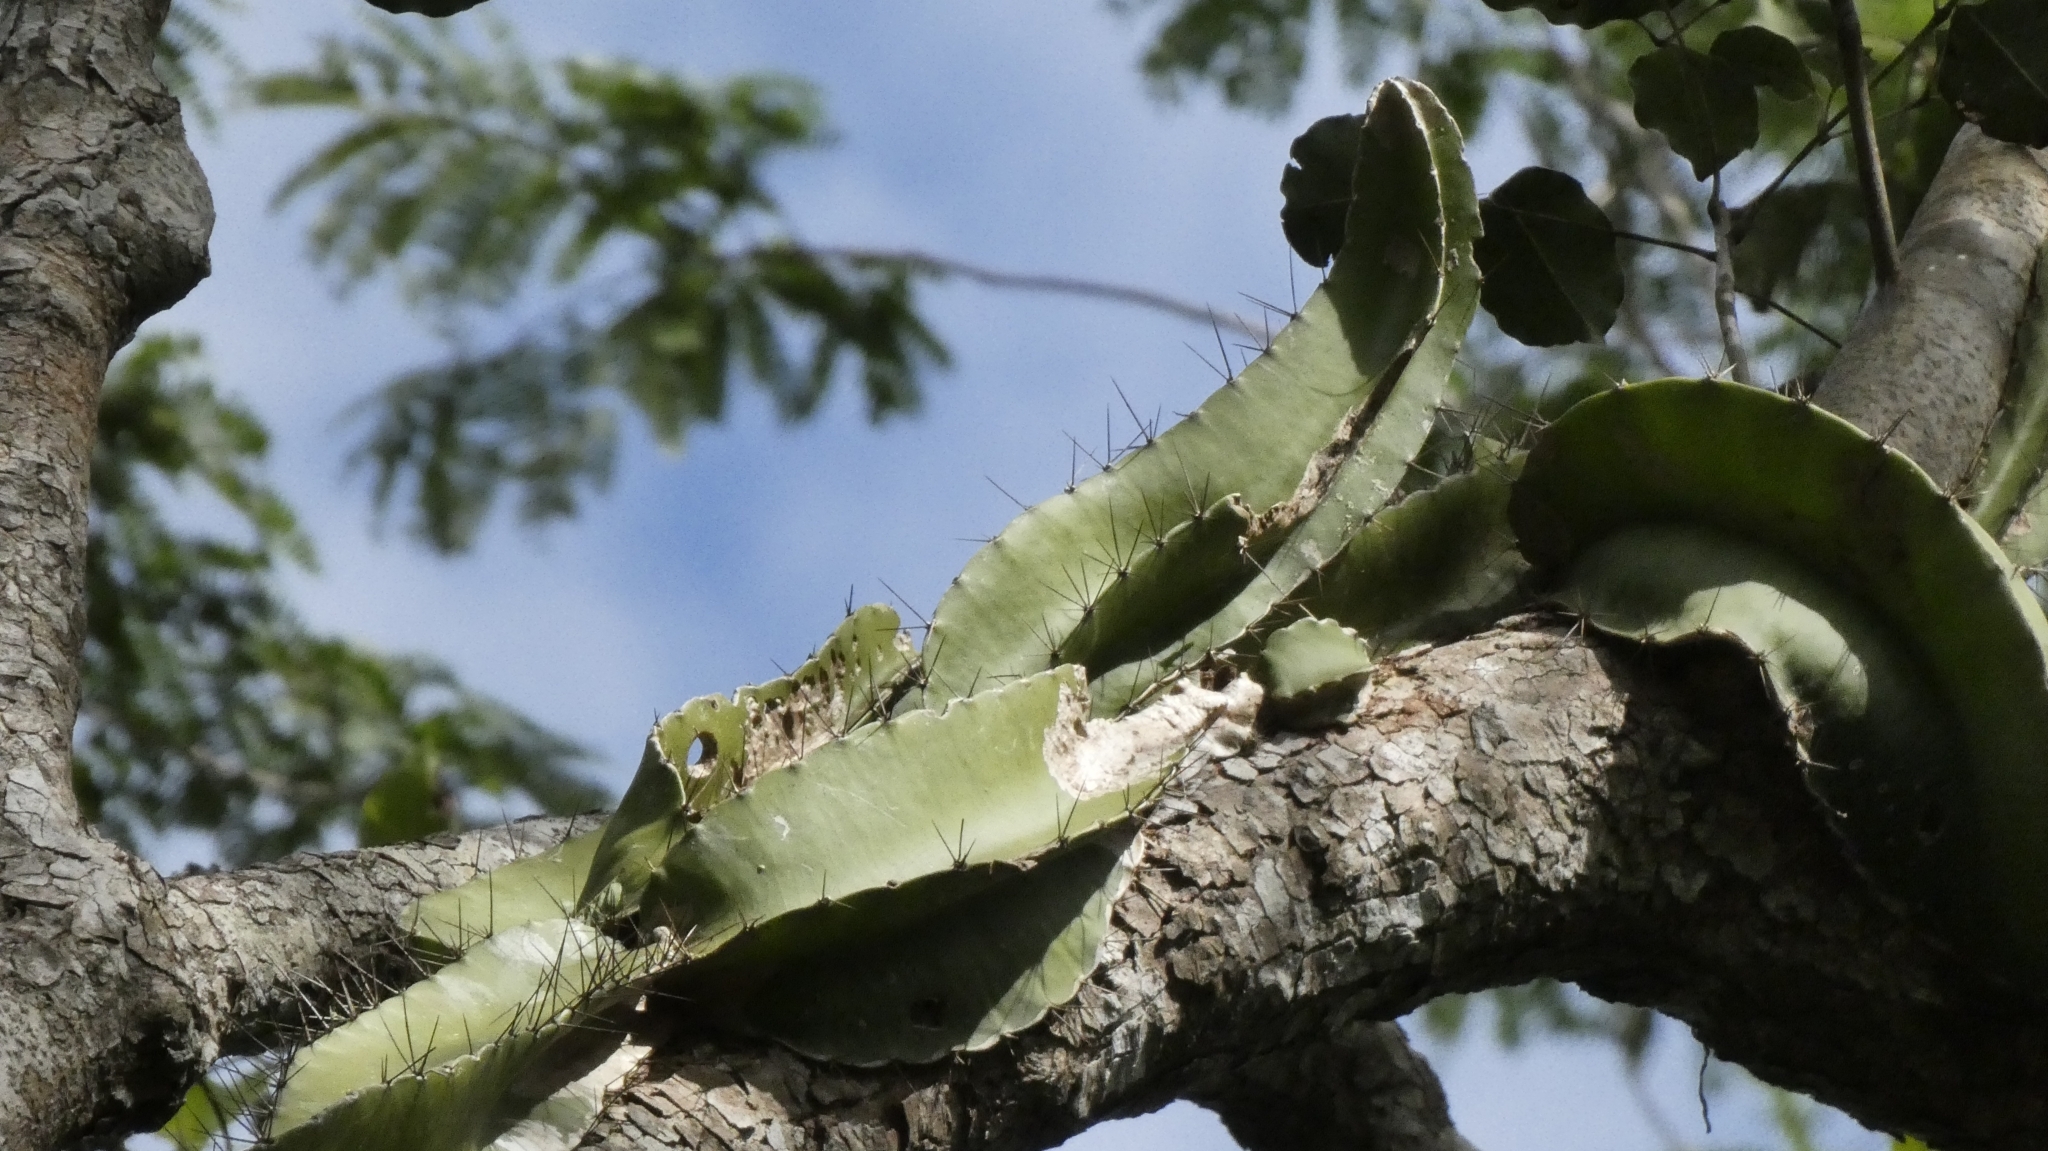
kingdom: Plantae
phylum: Tracheophyta
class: Magnoliopsida
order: Caryophyllales
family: Cactaceae
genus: Deamia
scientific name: Deamia testudo
